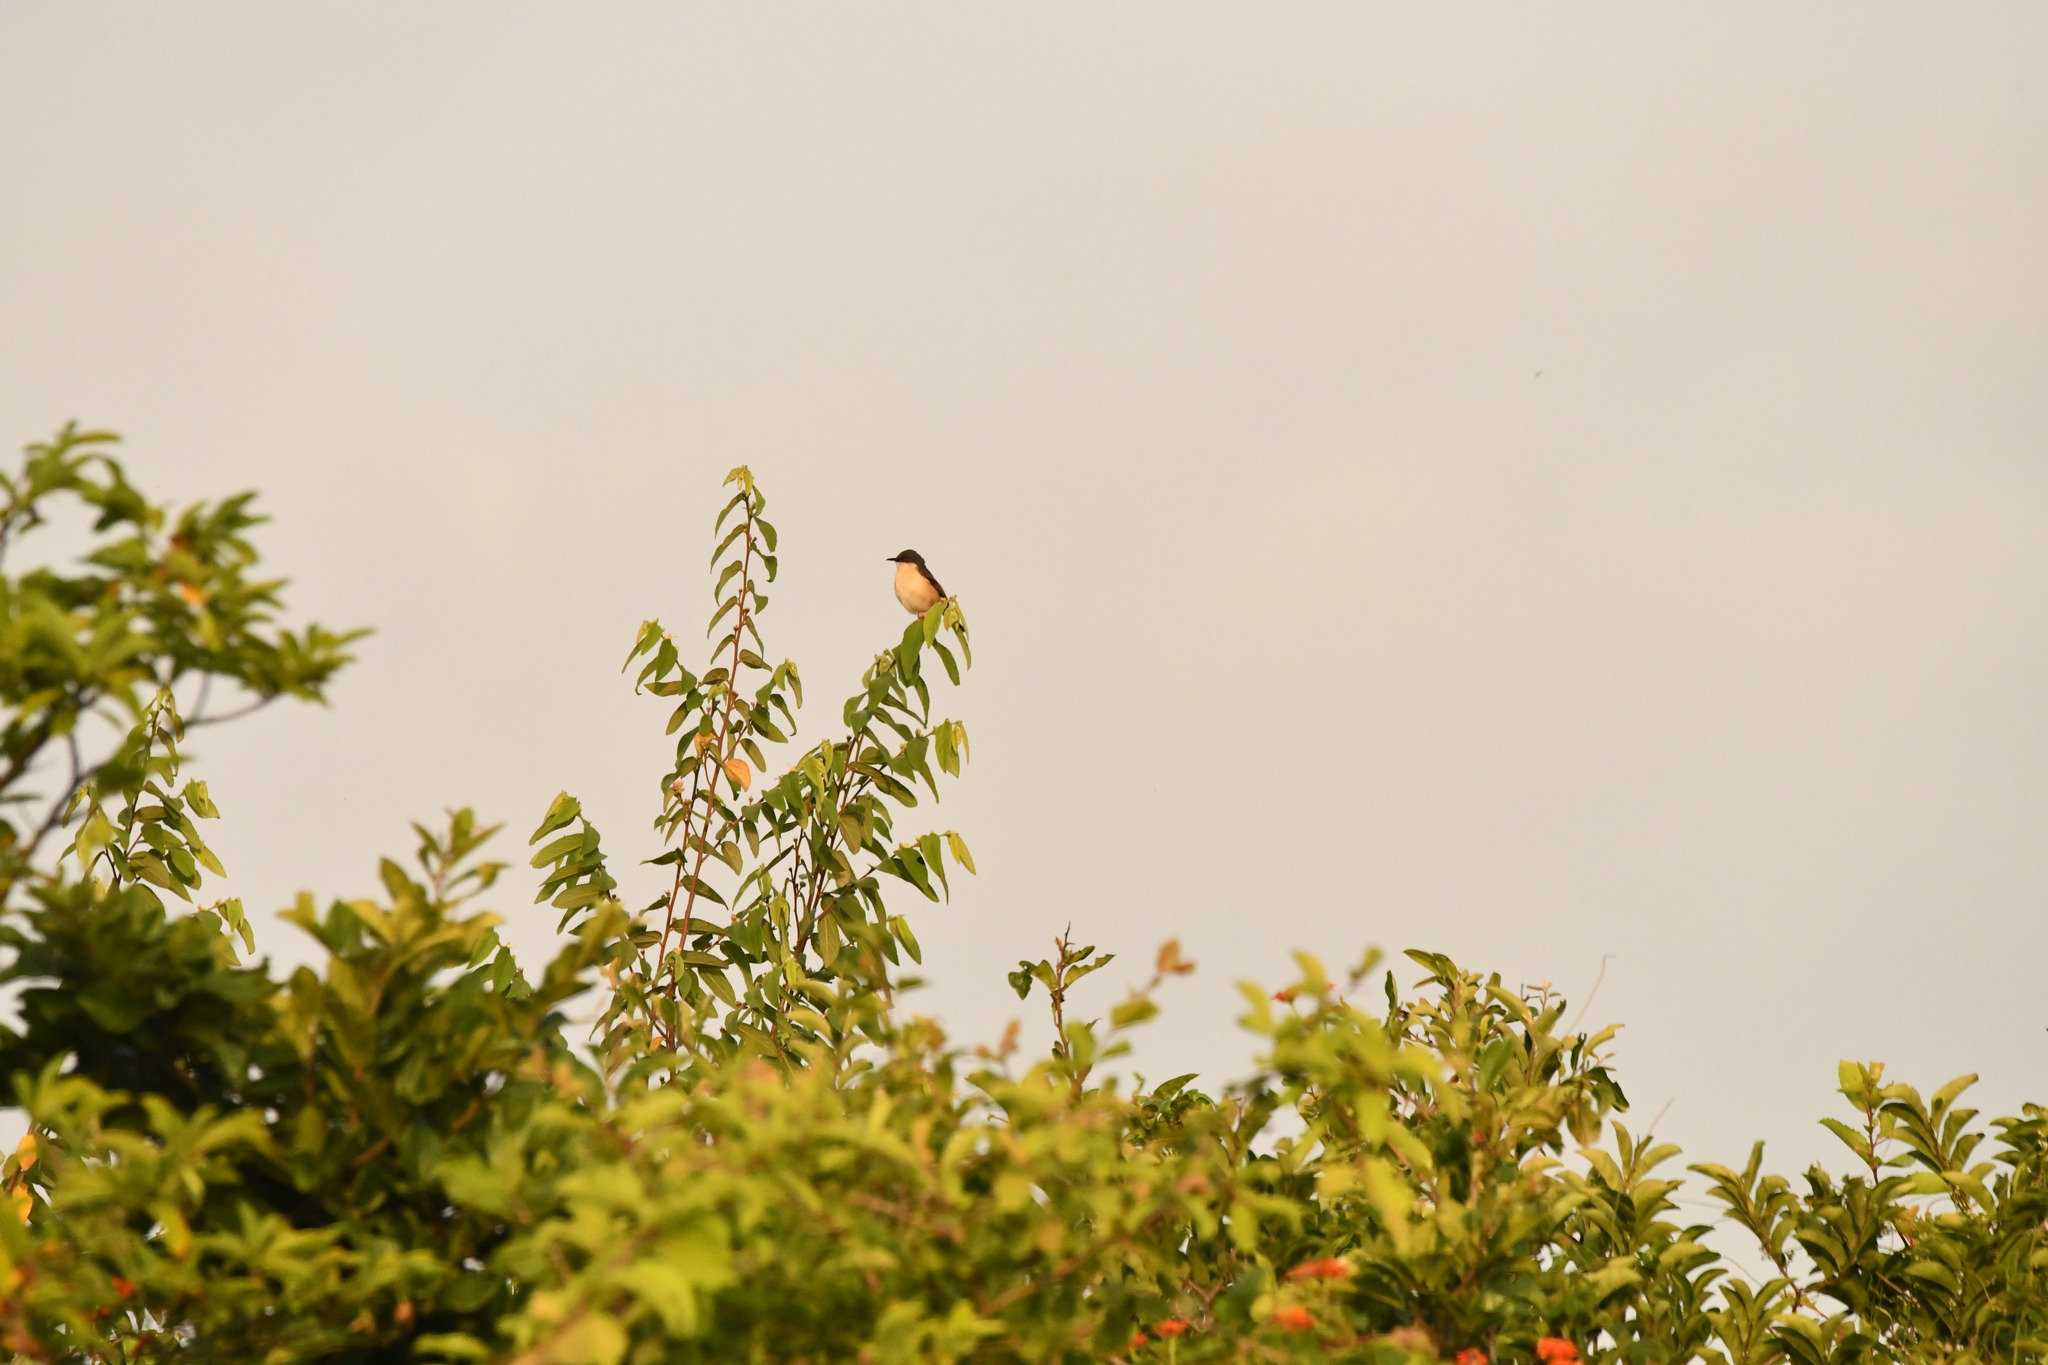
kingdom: Animalia
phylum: Chordata
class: Aves
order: Passeriformes
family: Cisticolidae
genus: Prinia
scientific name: Prinia socialis
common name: Ashy prinia
